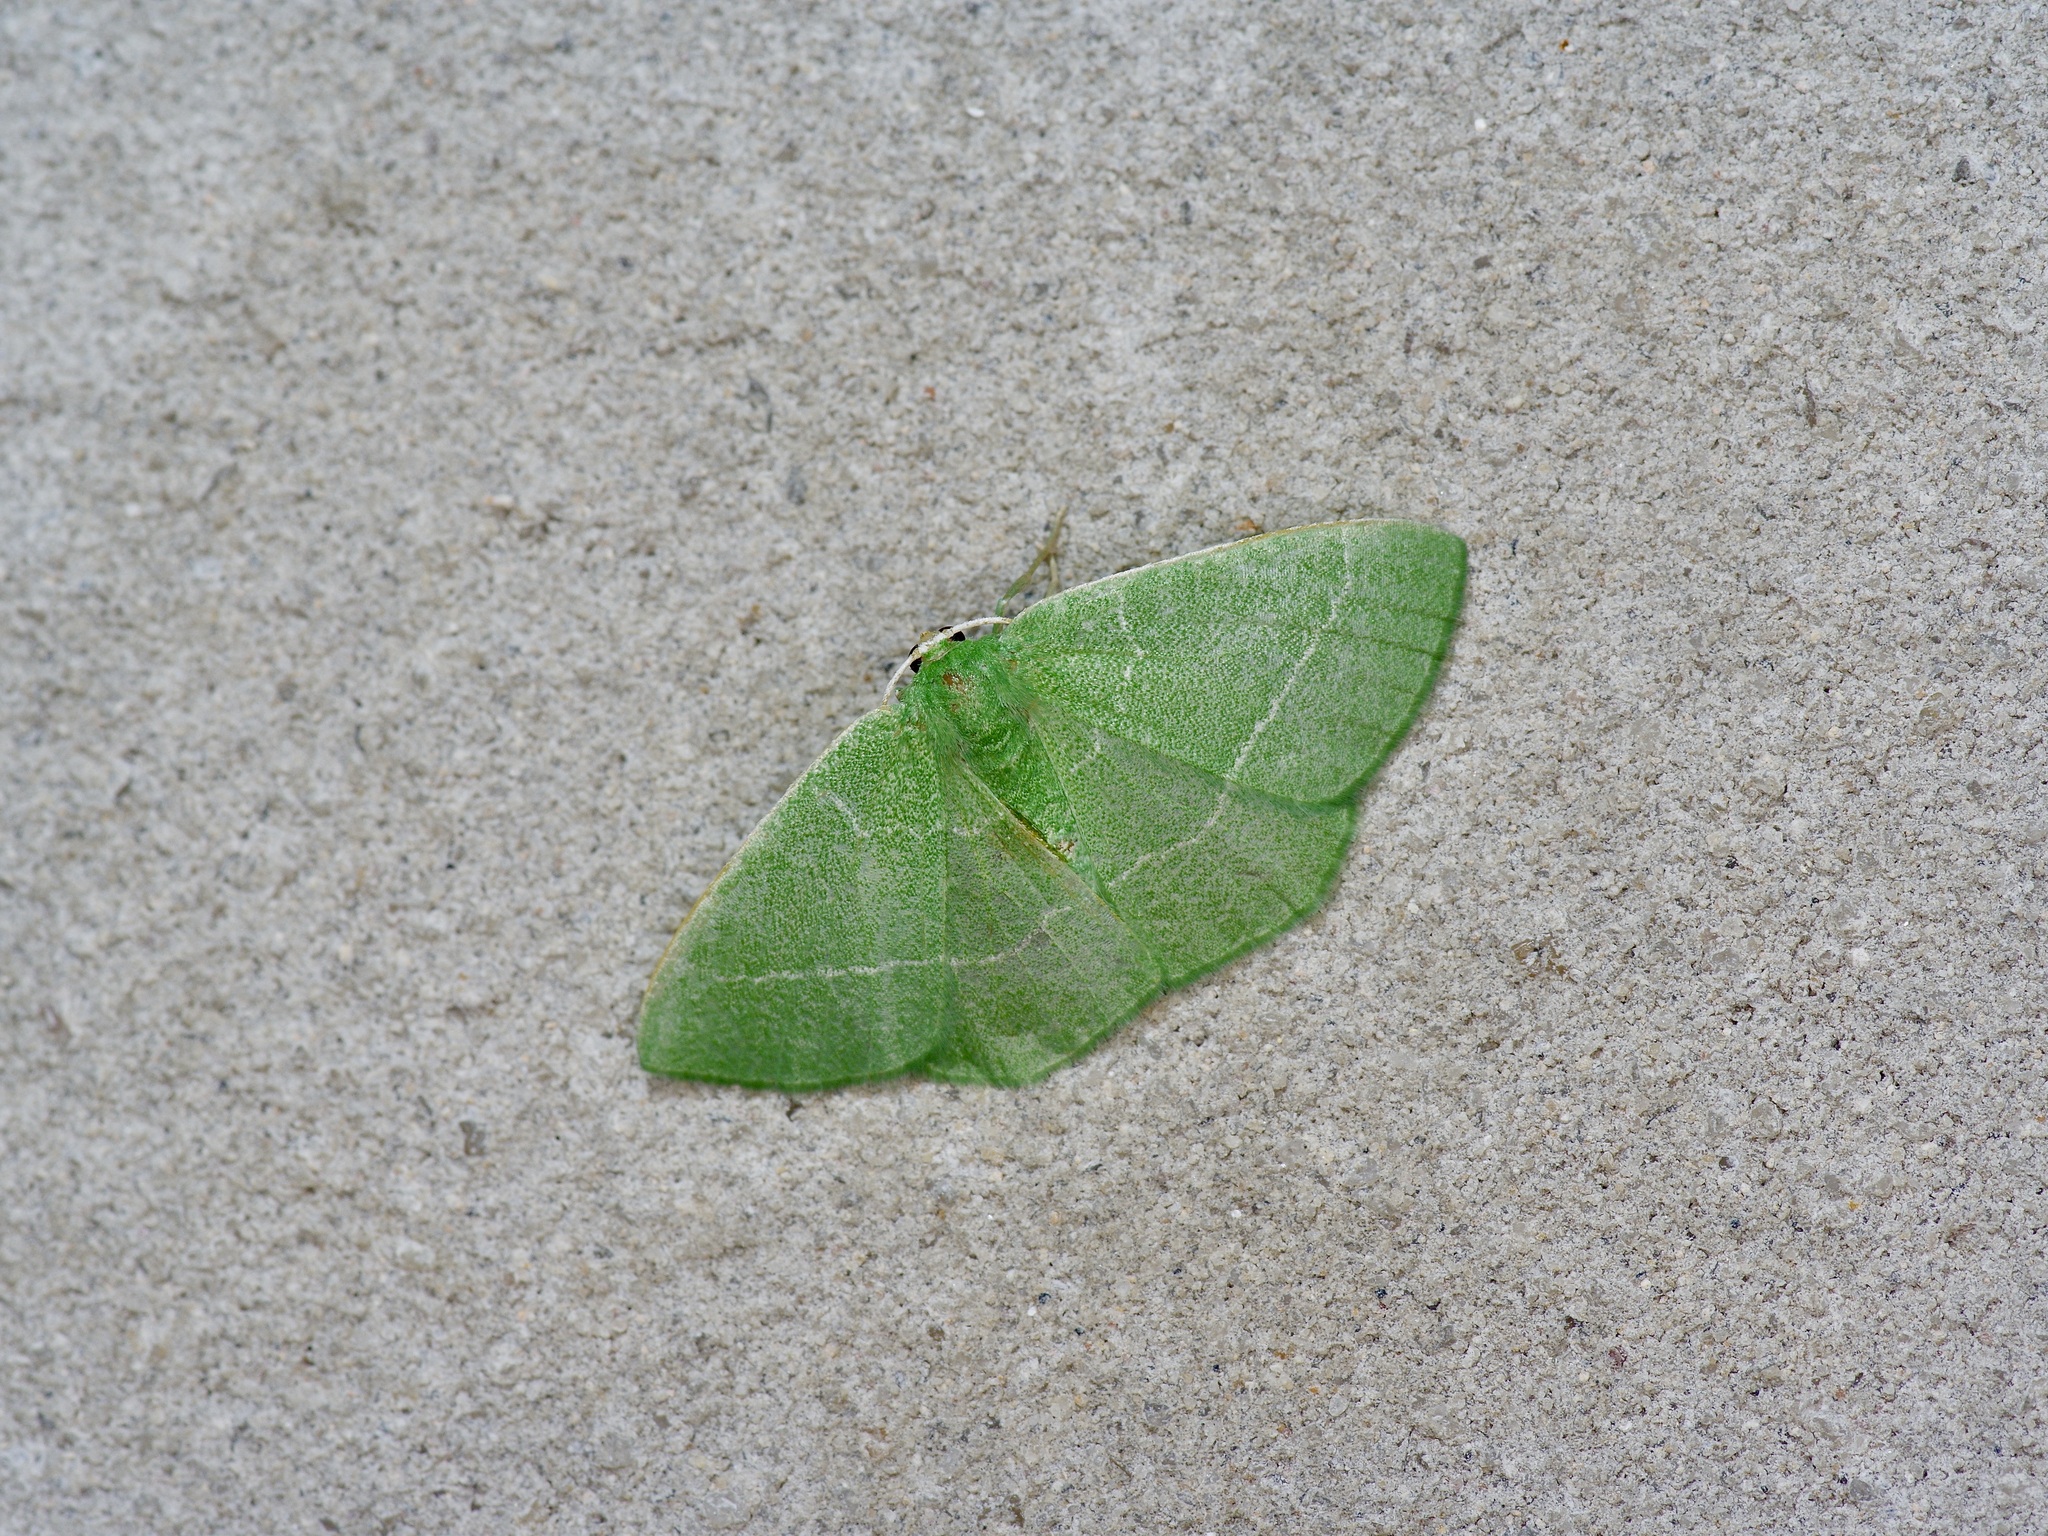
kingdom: Animalia
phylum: Arthropoda
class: Insecta
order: Lepidoptera
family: Geometridae
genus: Nemoria
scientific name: Nemoria zygotaria
